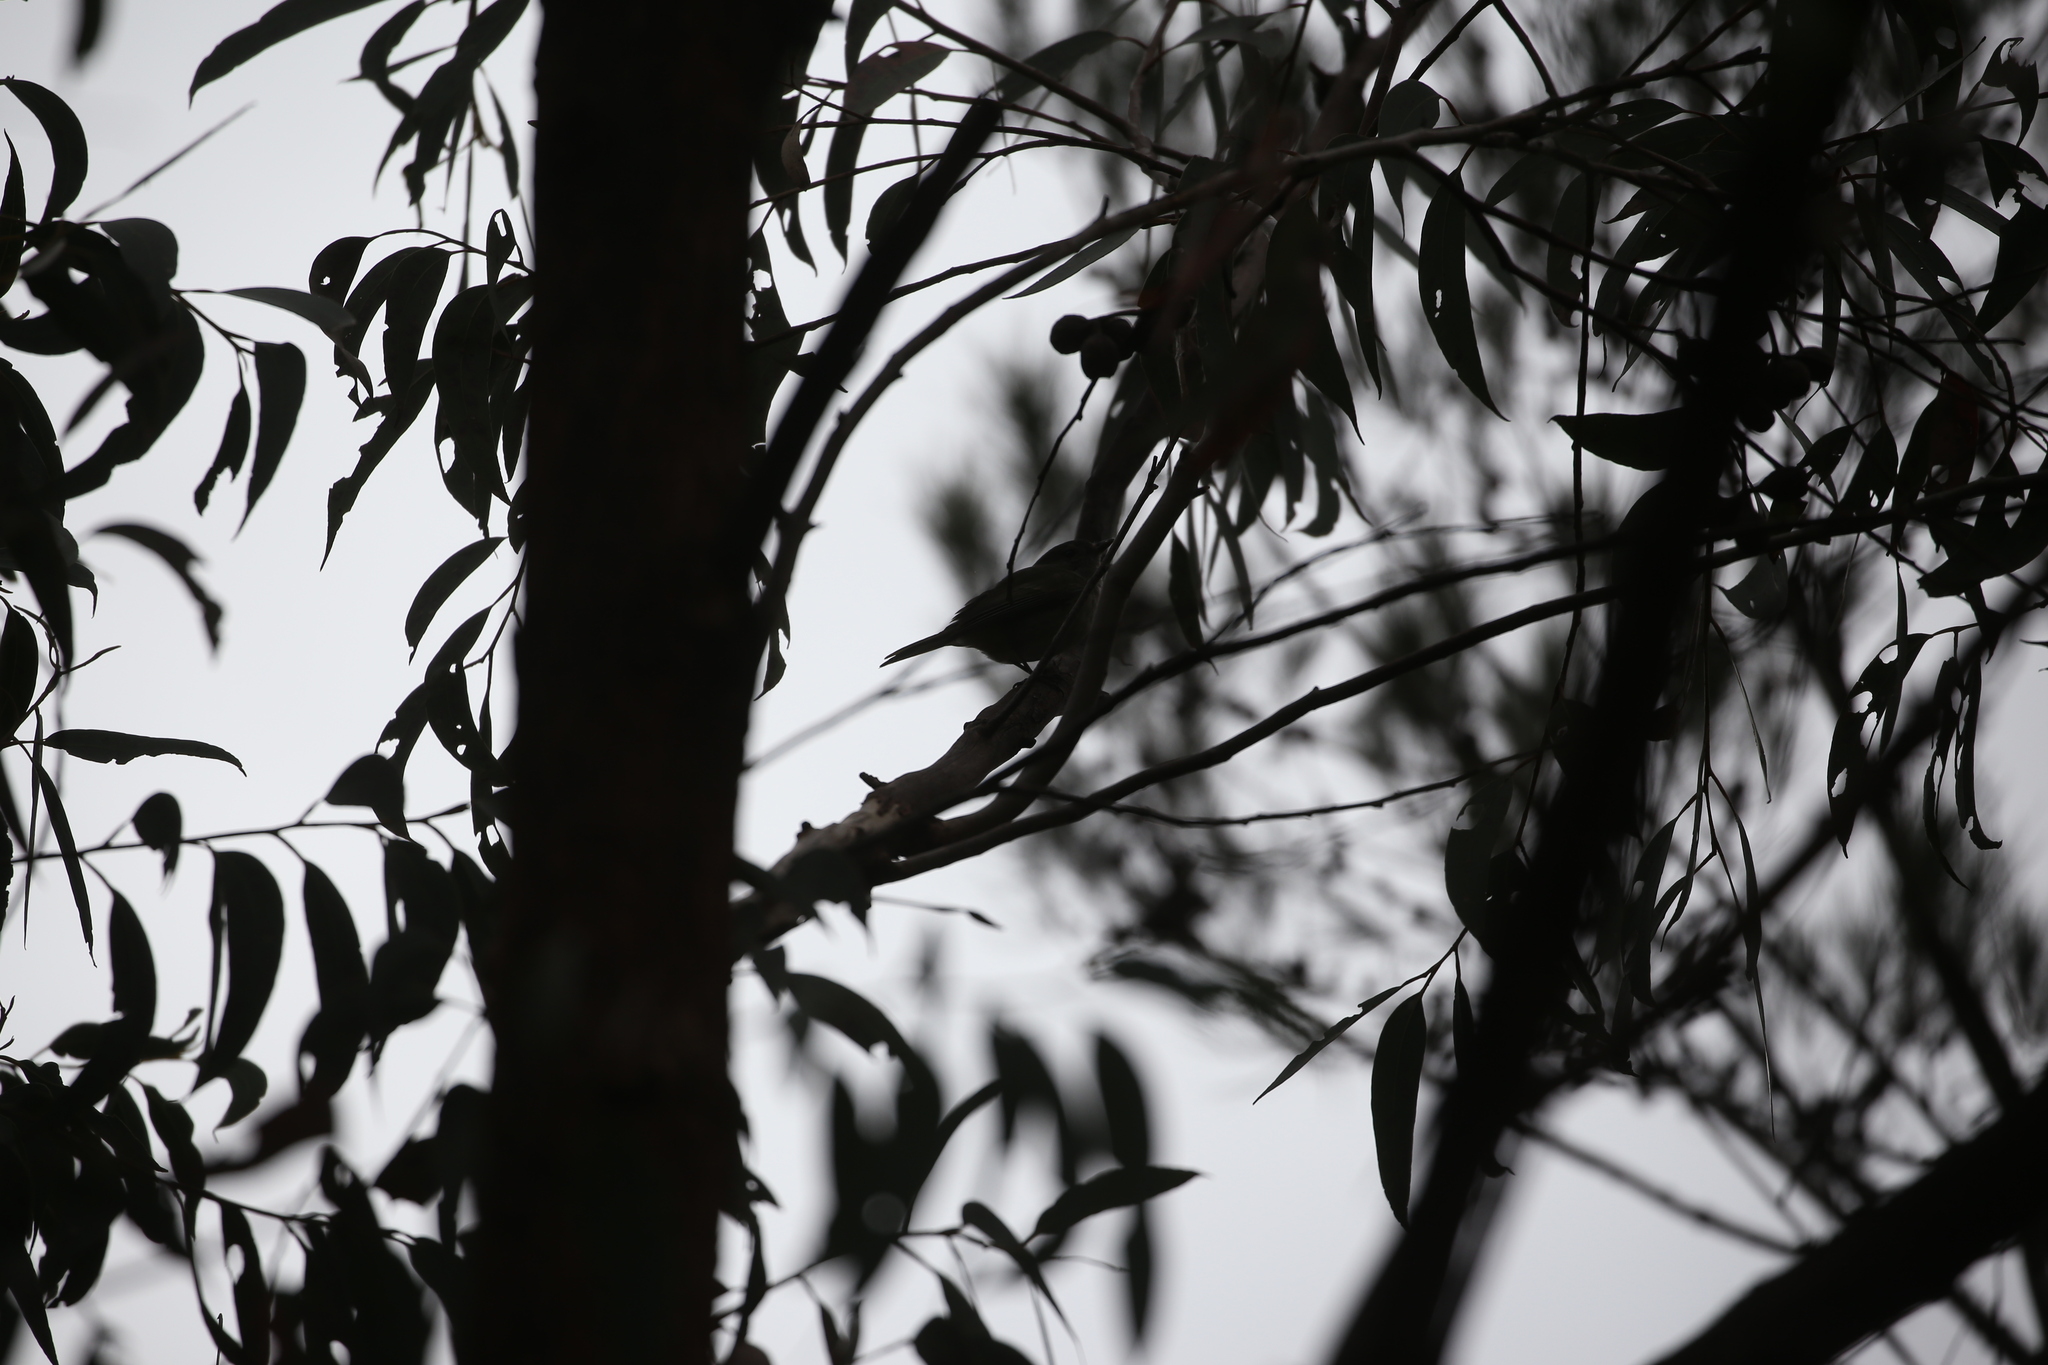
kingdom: Animalia
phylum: Chordata
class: Aves
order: Passeriformes
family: Pachycephalidae
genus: Pachycephala
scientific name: Pachycephala pectoralis
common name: Australian golden whistler
